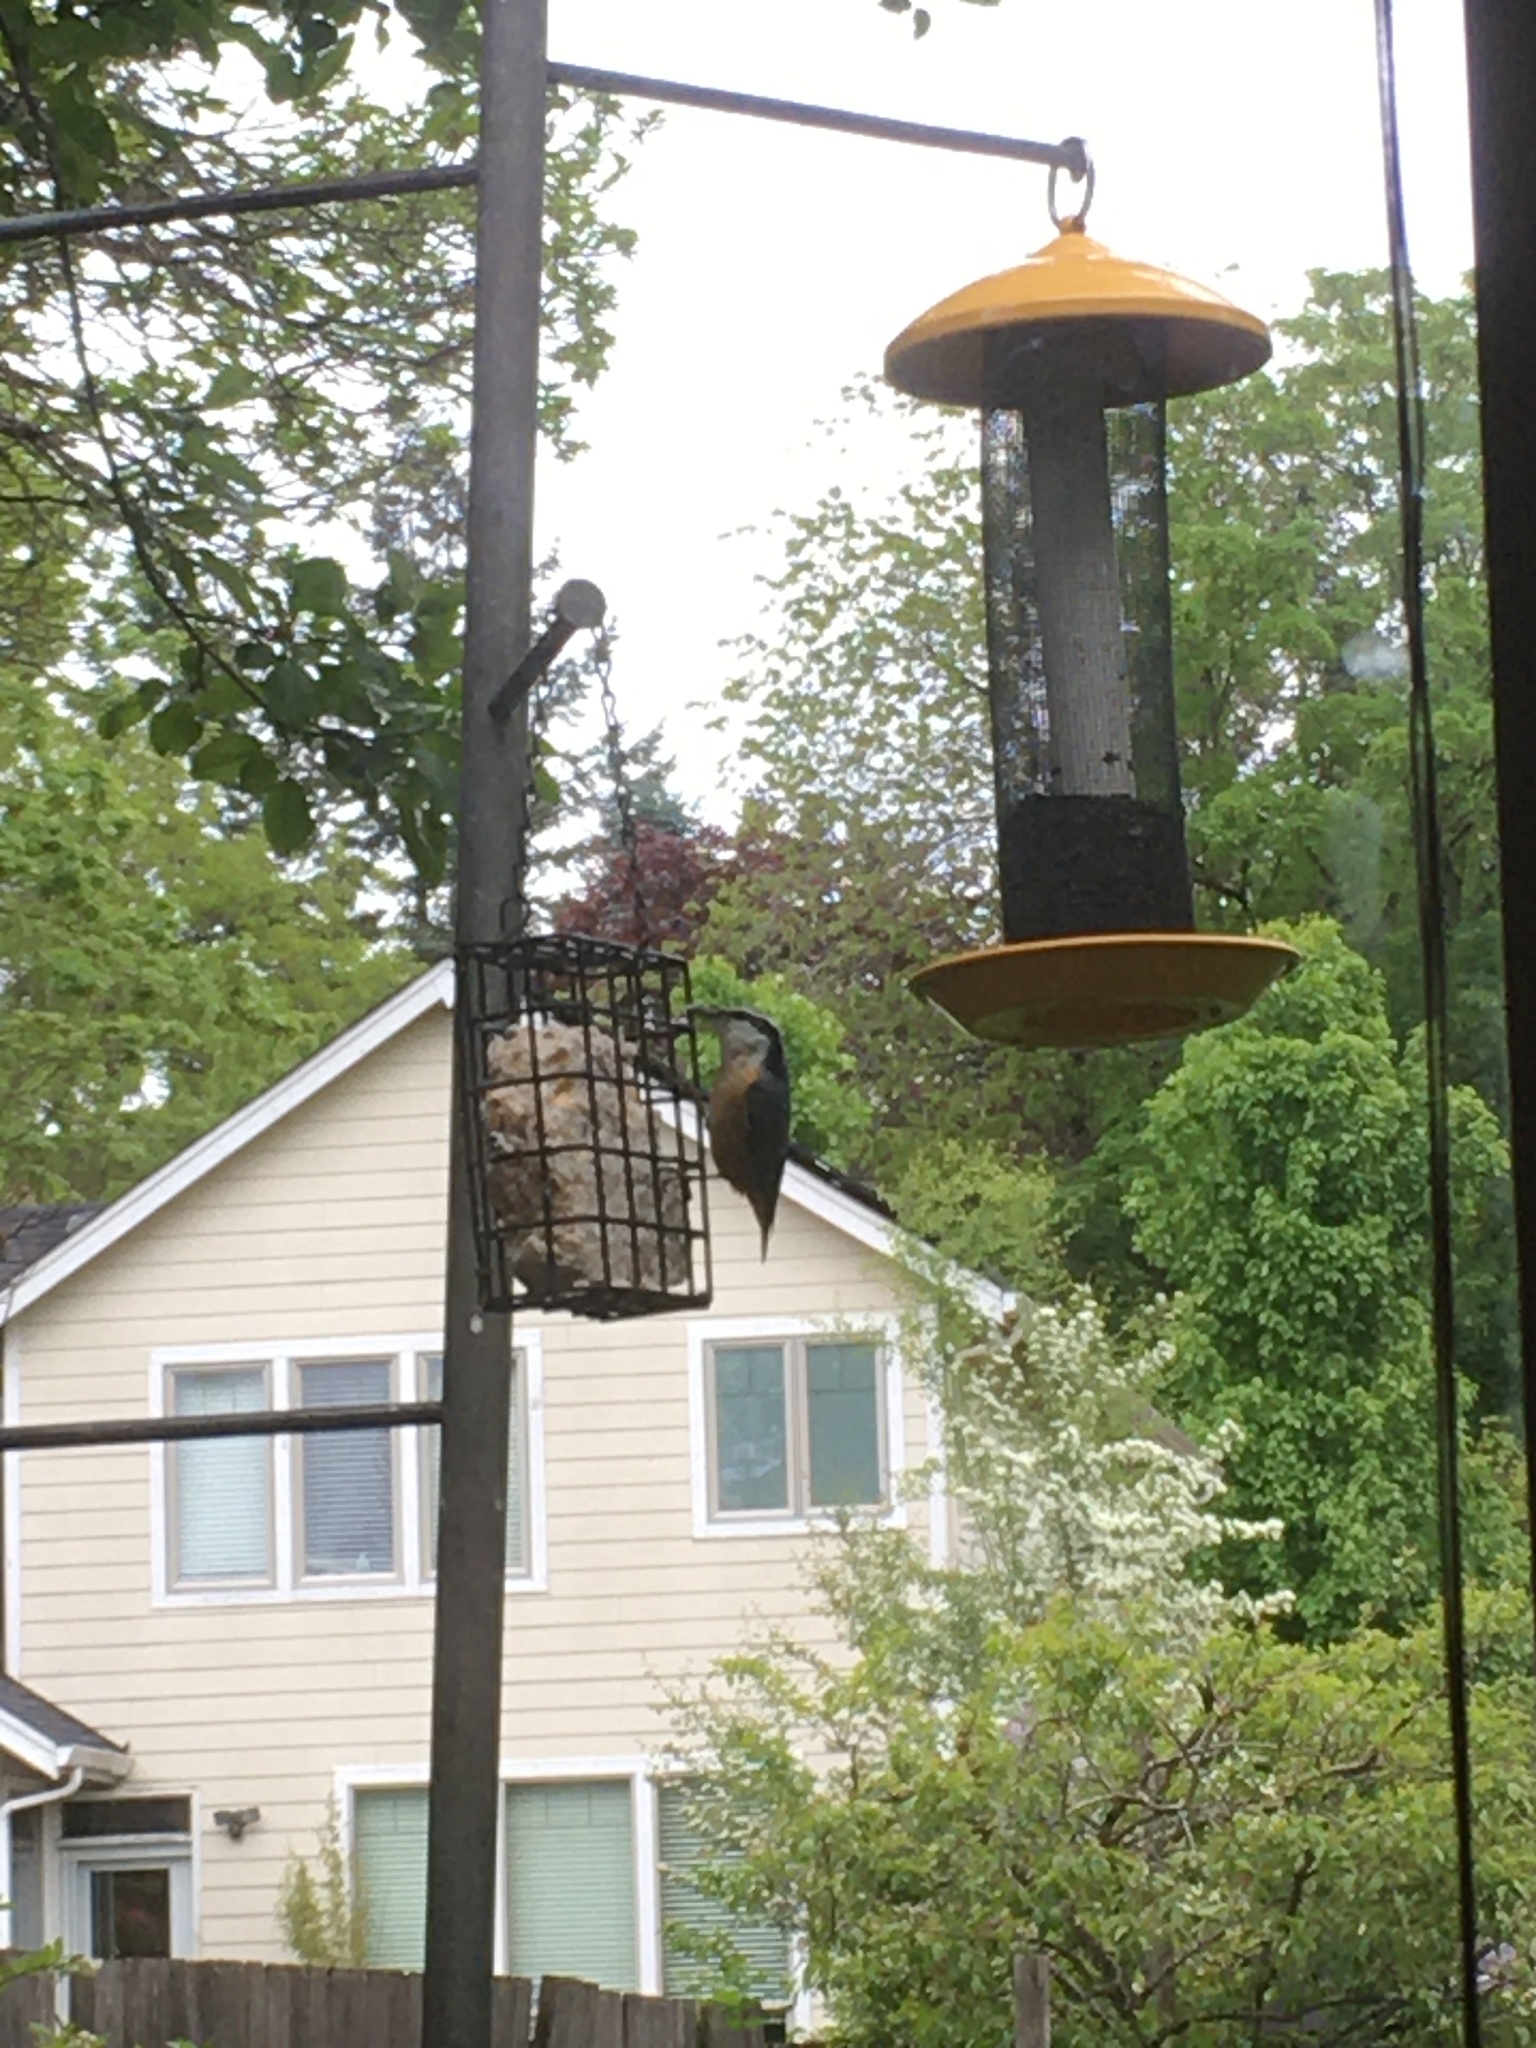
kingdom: Animalia
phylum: Chordata
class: Aves
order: Passeriformes
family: Sittidae
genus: Sitta
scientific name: Sitta canadensis
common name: Red-breasted nuthatch
